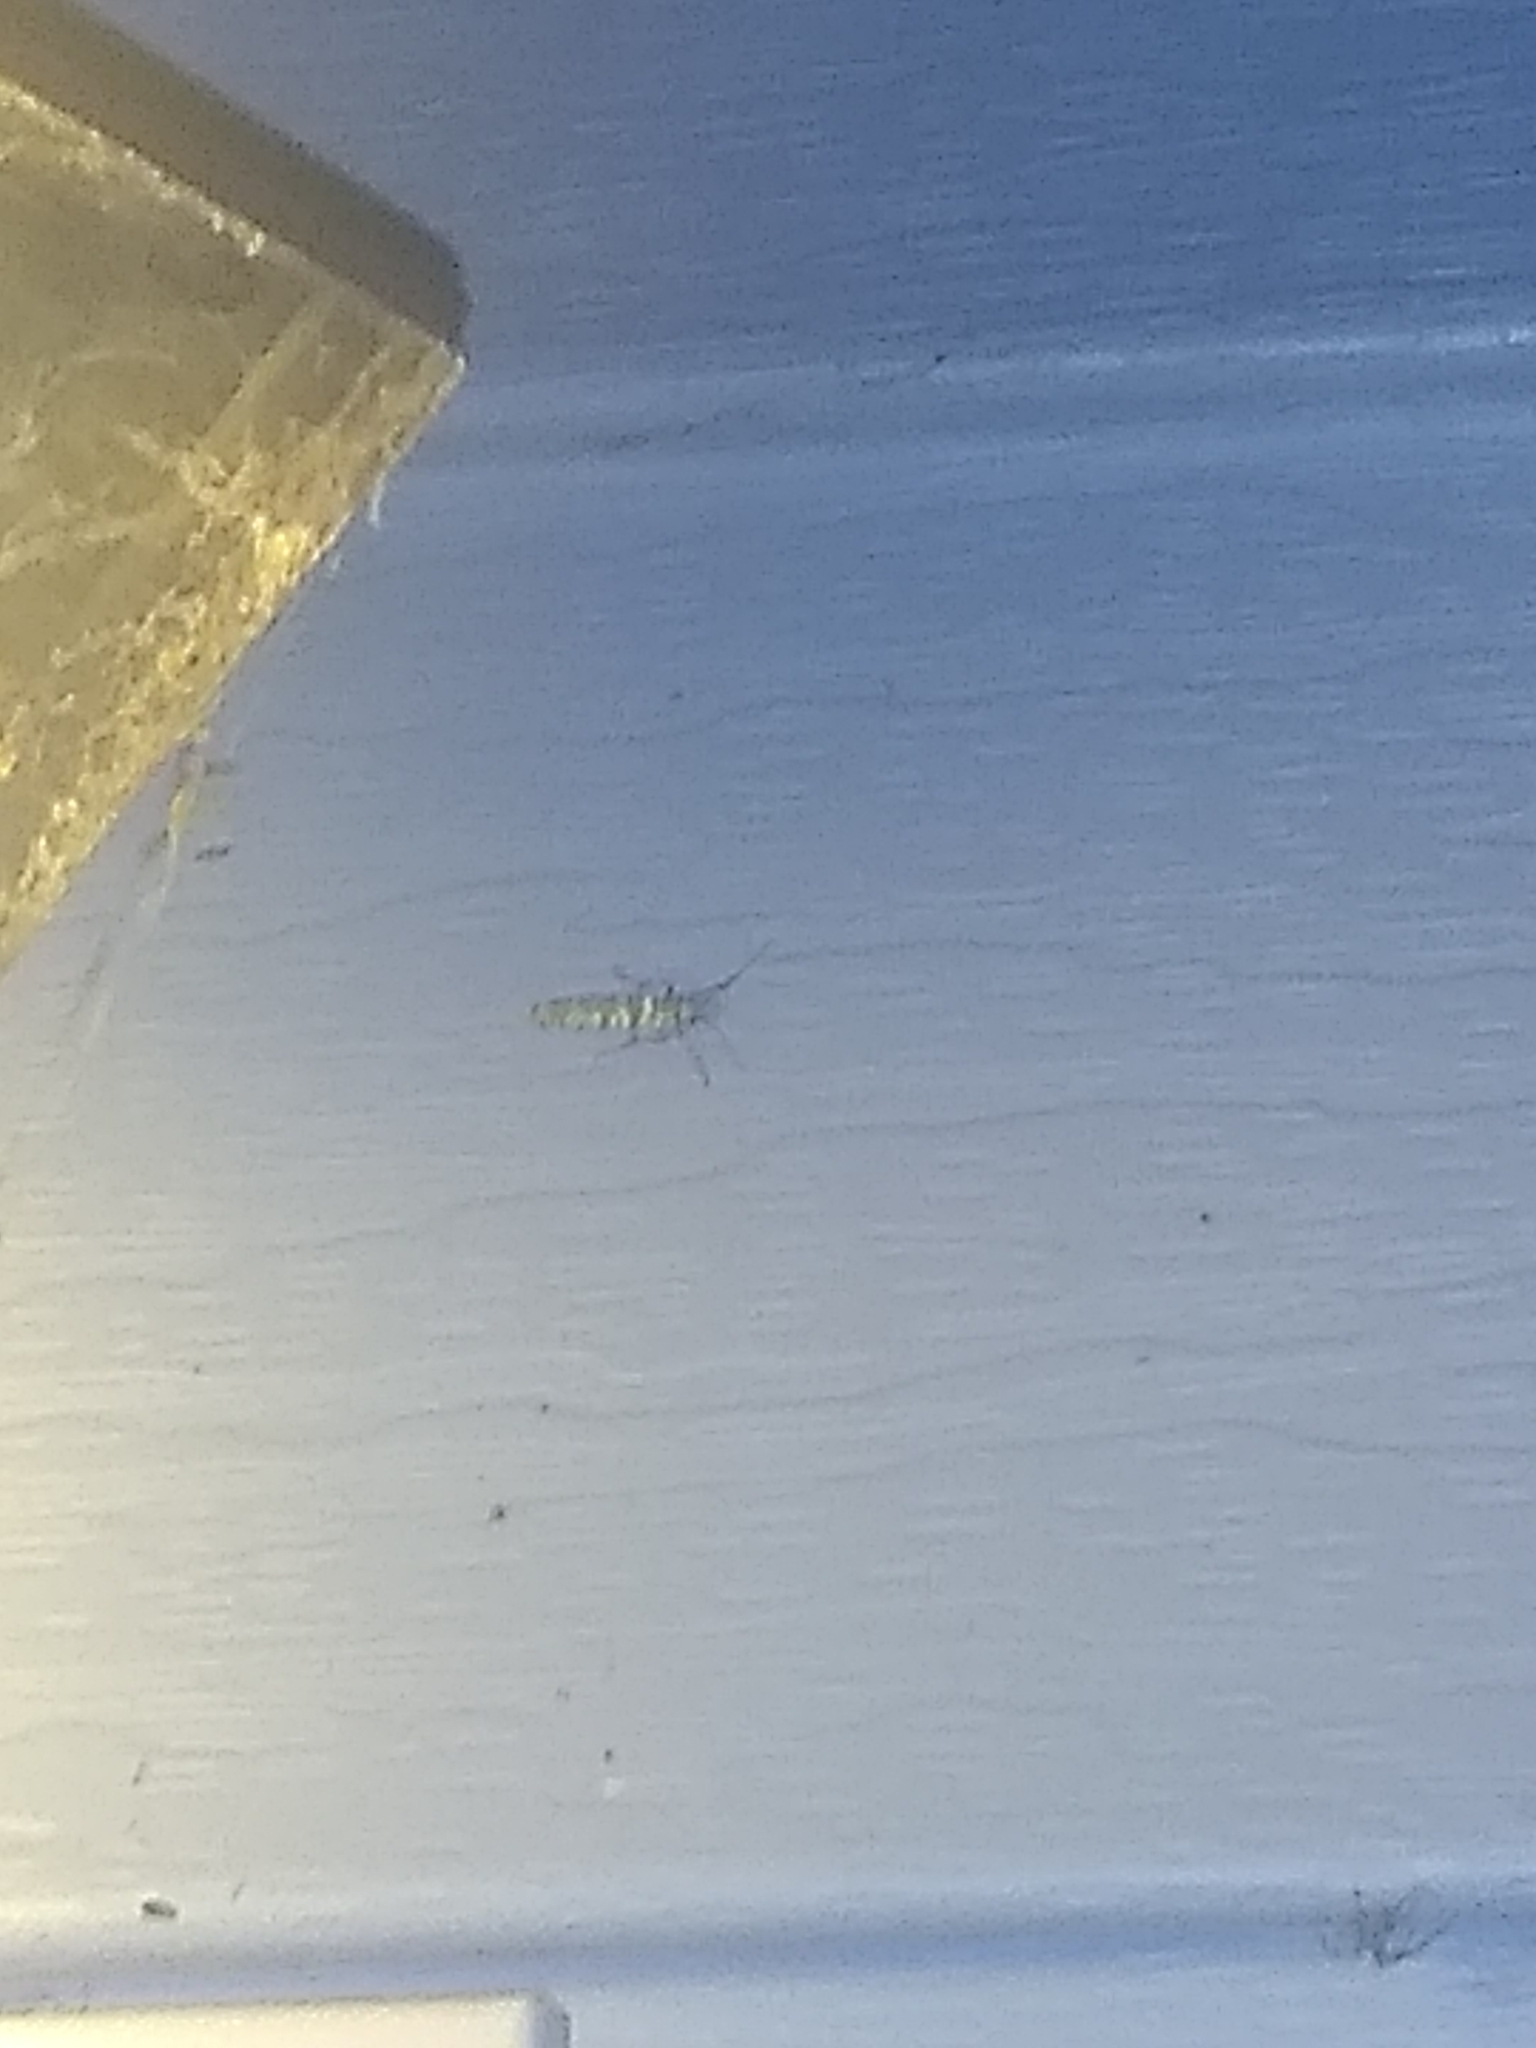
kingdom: Animalia
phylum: Arthropoda
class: Insecta
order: Lepidoptera
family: Attevidae
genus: Atteva
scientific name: Atteva punctella
